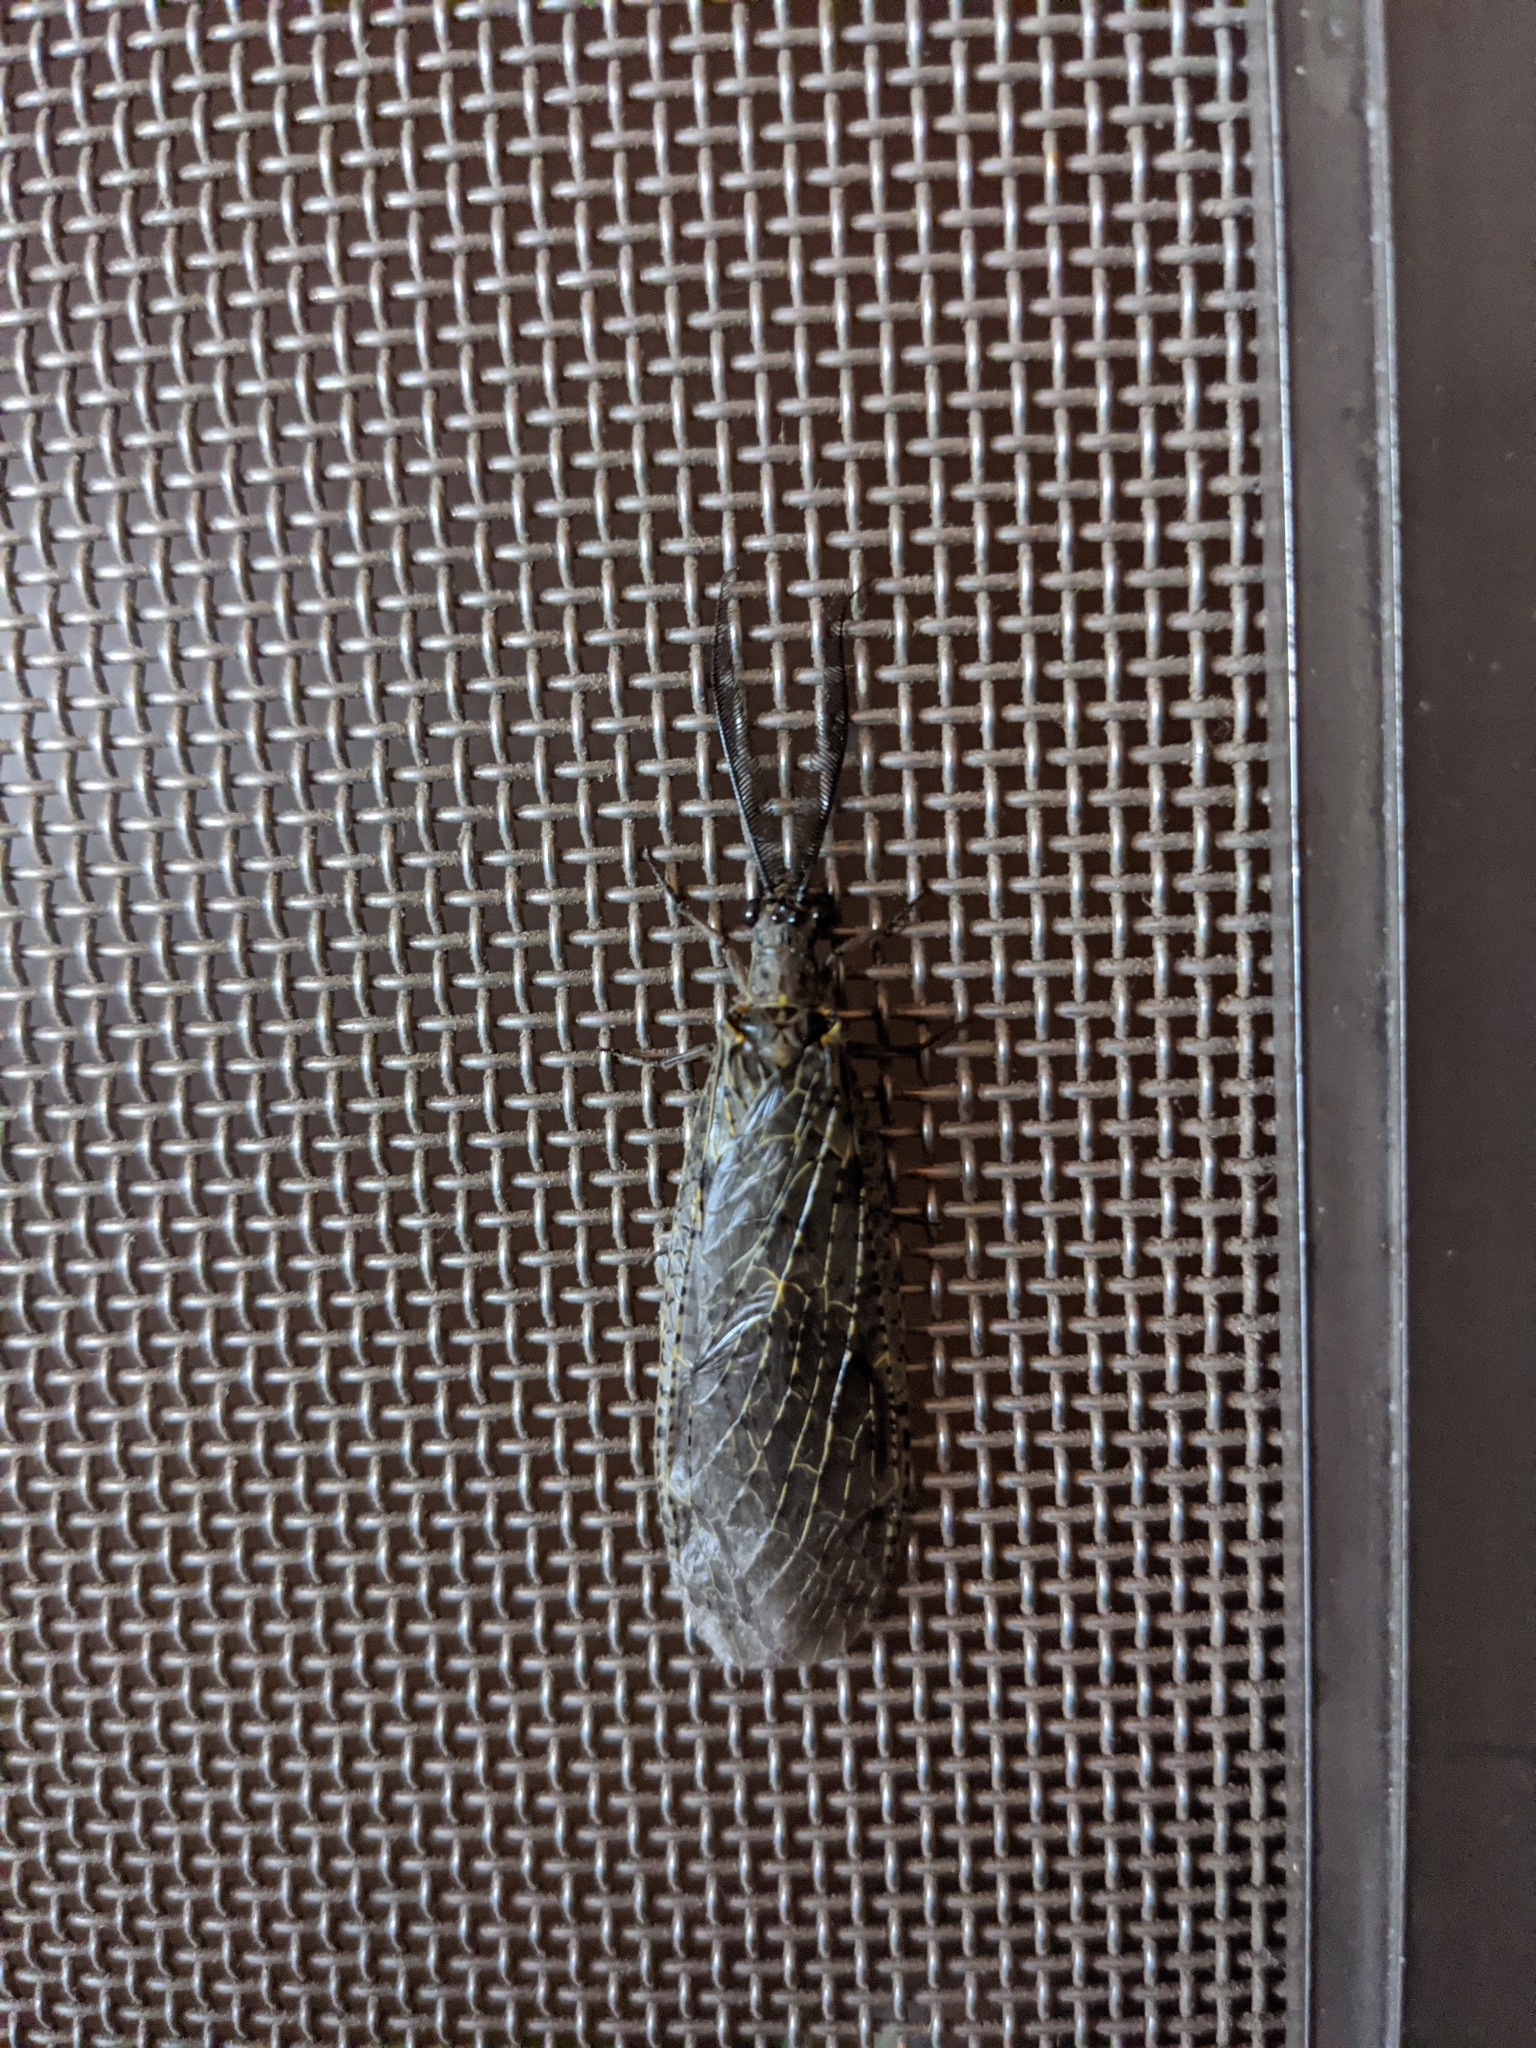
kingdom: Animalia
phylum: Arthropoda
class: Insecta
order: Megaloptera
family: Corydalidae
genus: Chauliodes
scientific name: Chauliodes rastricornis
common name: Spring fishfly
